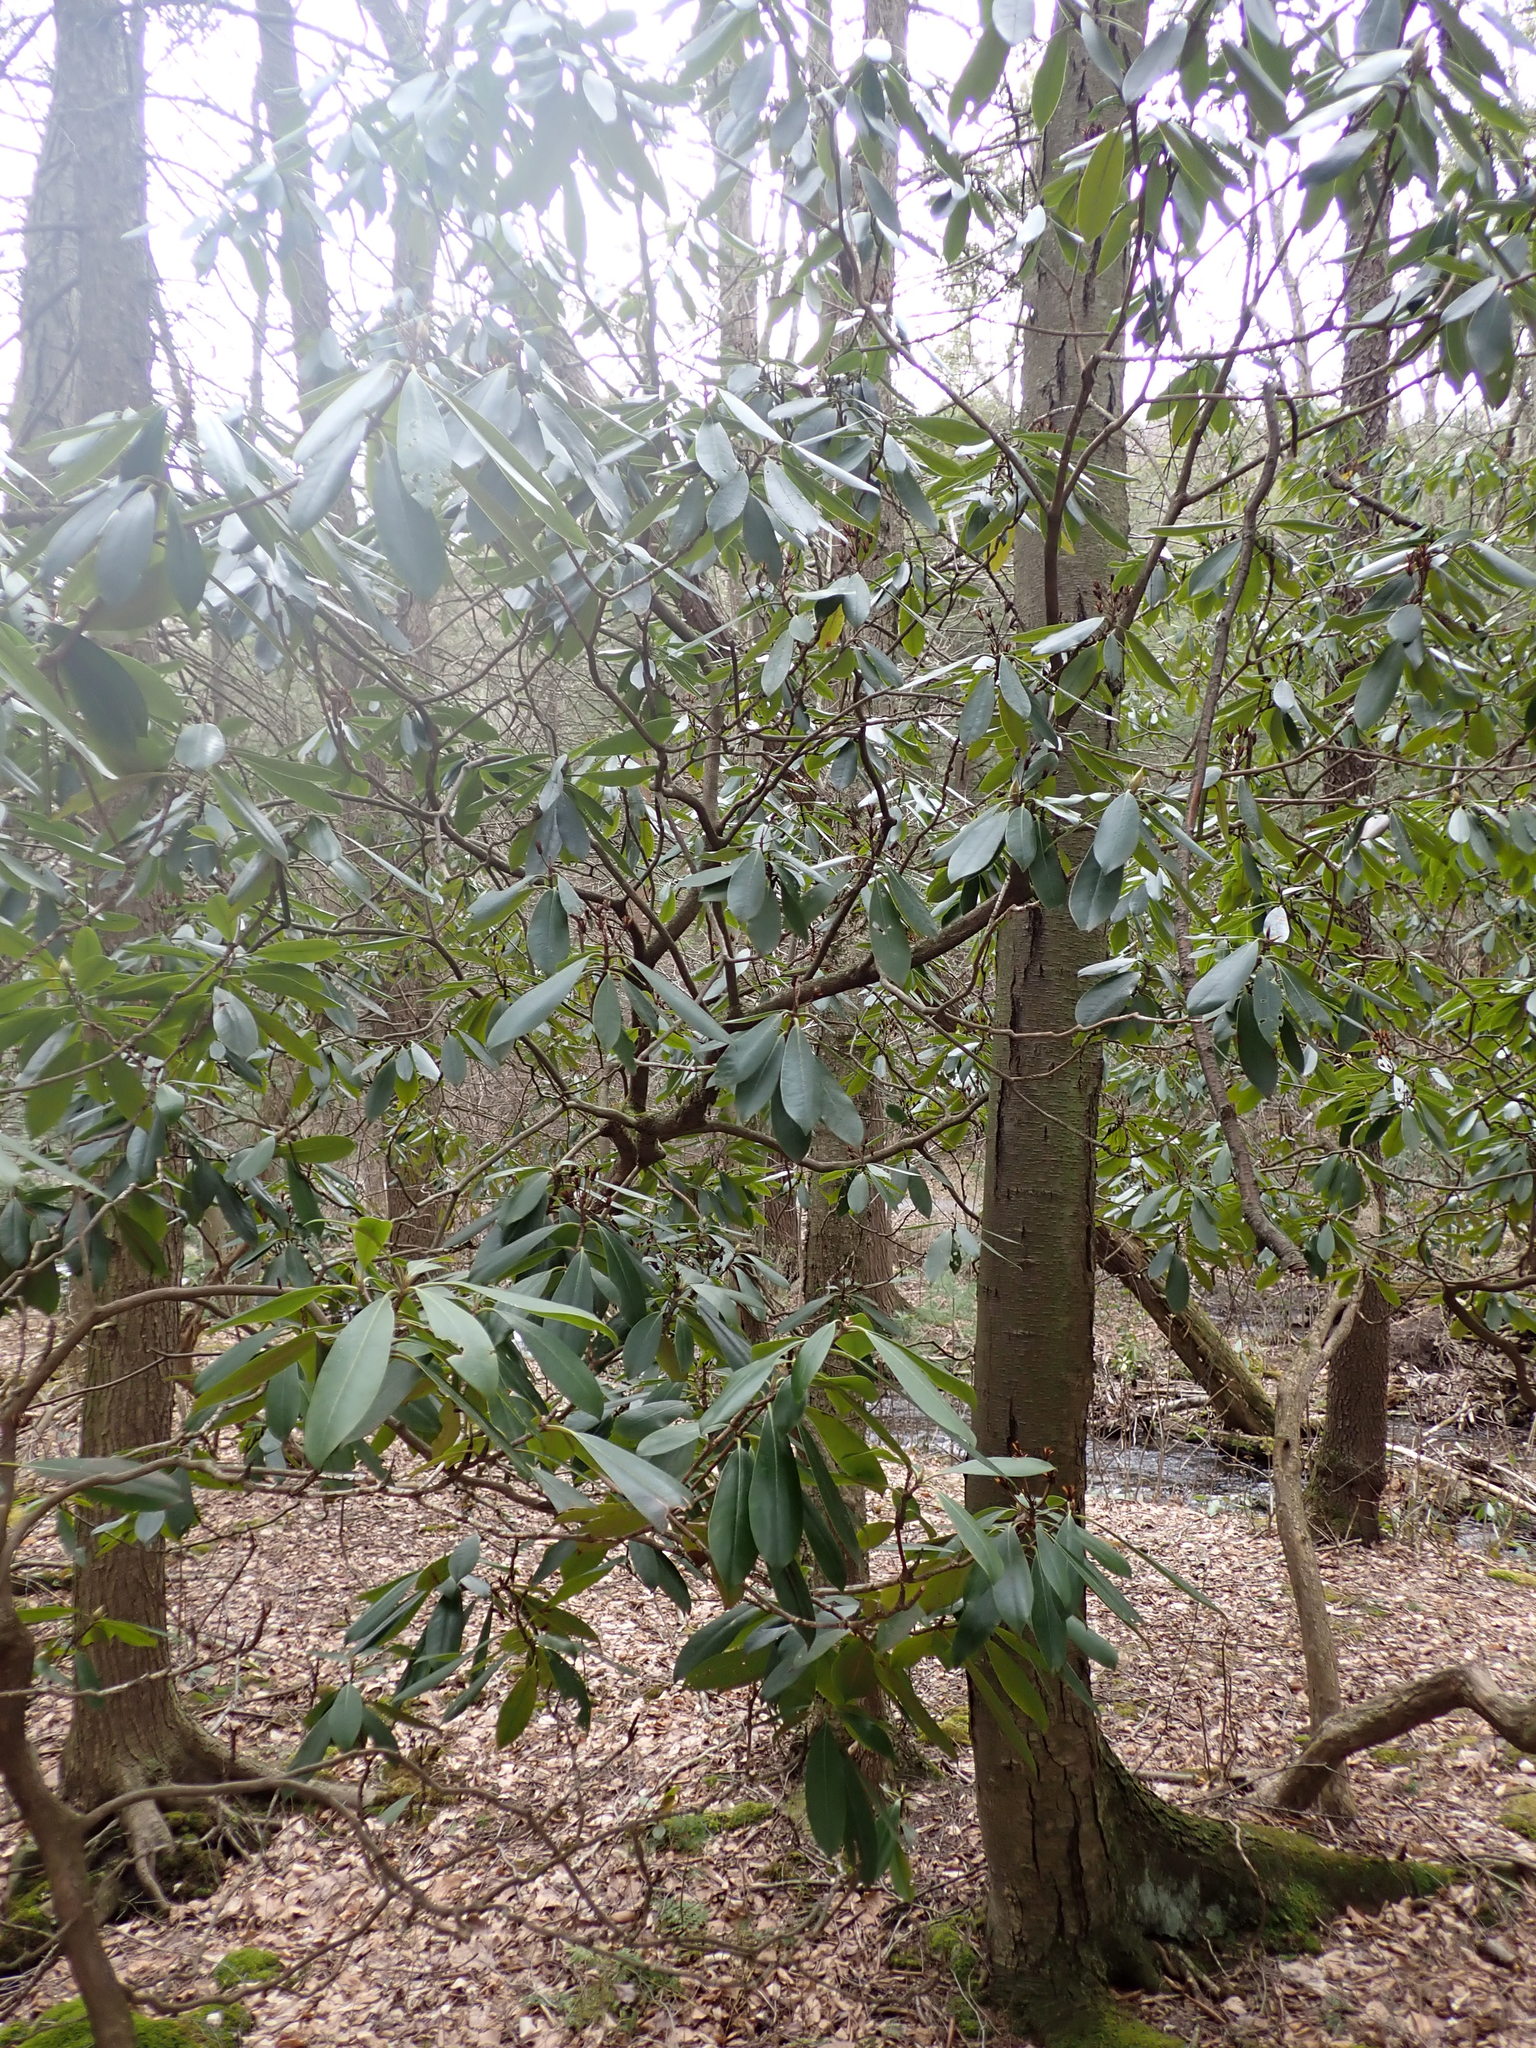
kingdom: Plantae
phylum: Tracheophyta
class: Magnoliopsida
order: Ericales
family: Ericaceae
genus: Rhododendron
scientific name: Rhododendron maximum
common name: Great rhododendron
